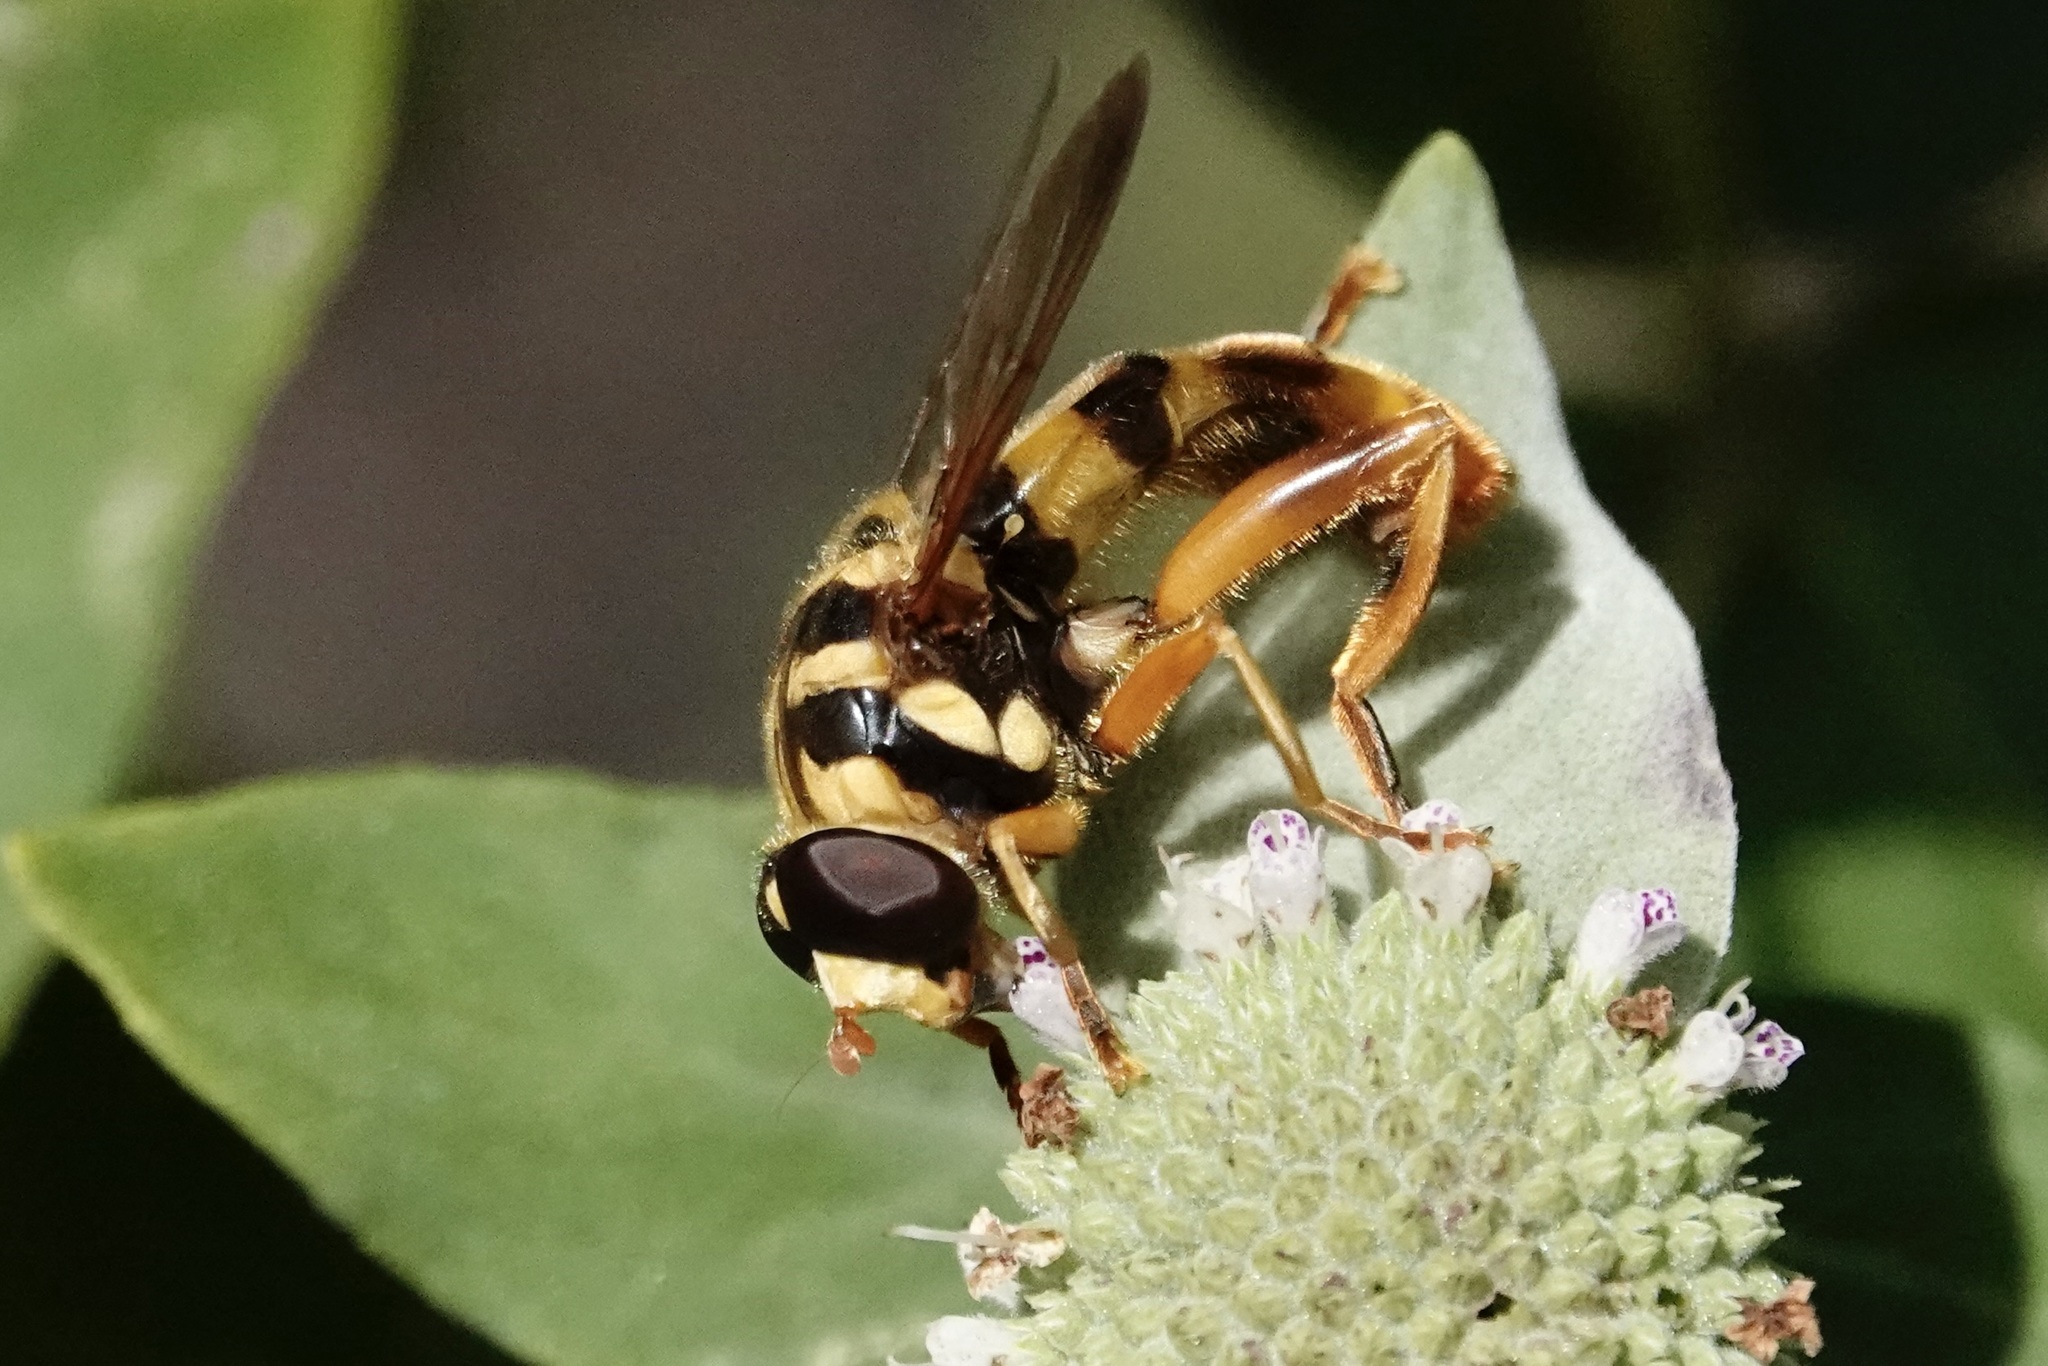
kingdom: Animalia
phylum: Arthropoda
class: Insecta
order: Diptera
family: Syrphidae
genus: Milesia
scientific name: Milesia virginiensis
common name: Virginia giant
